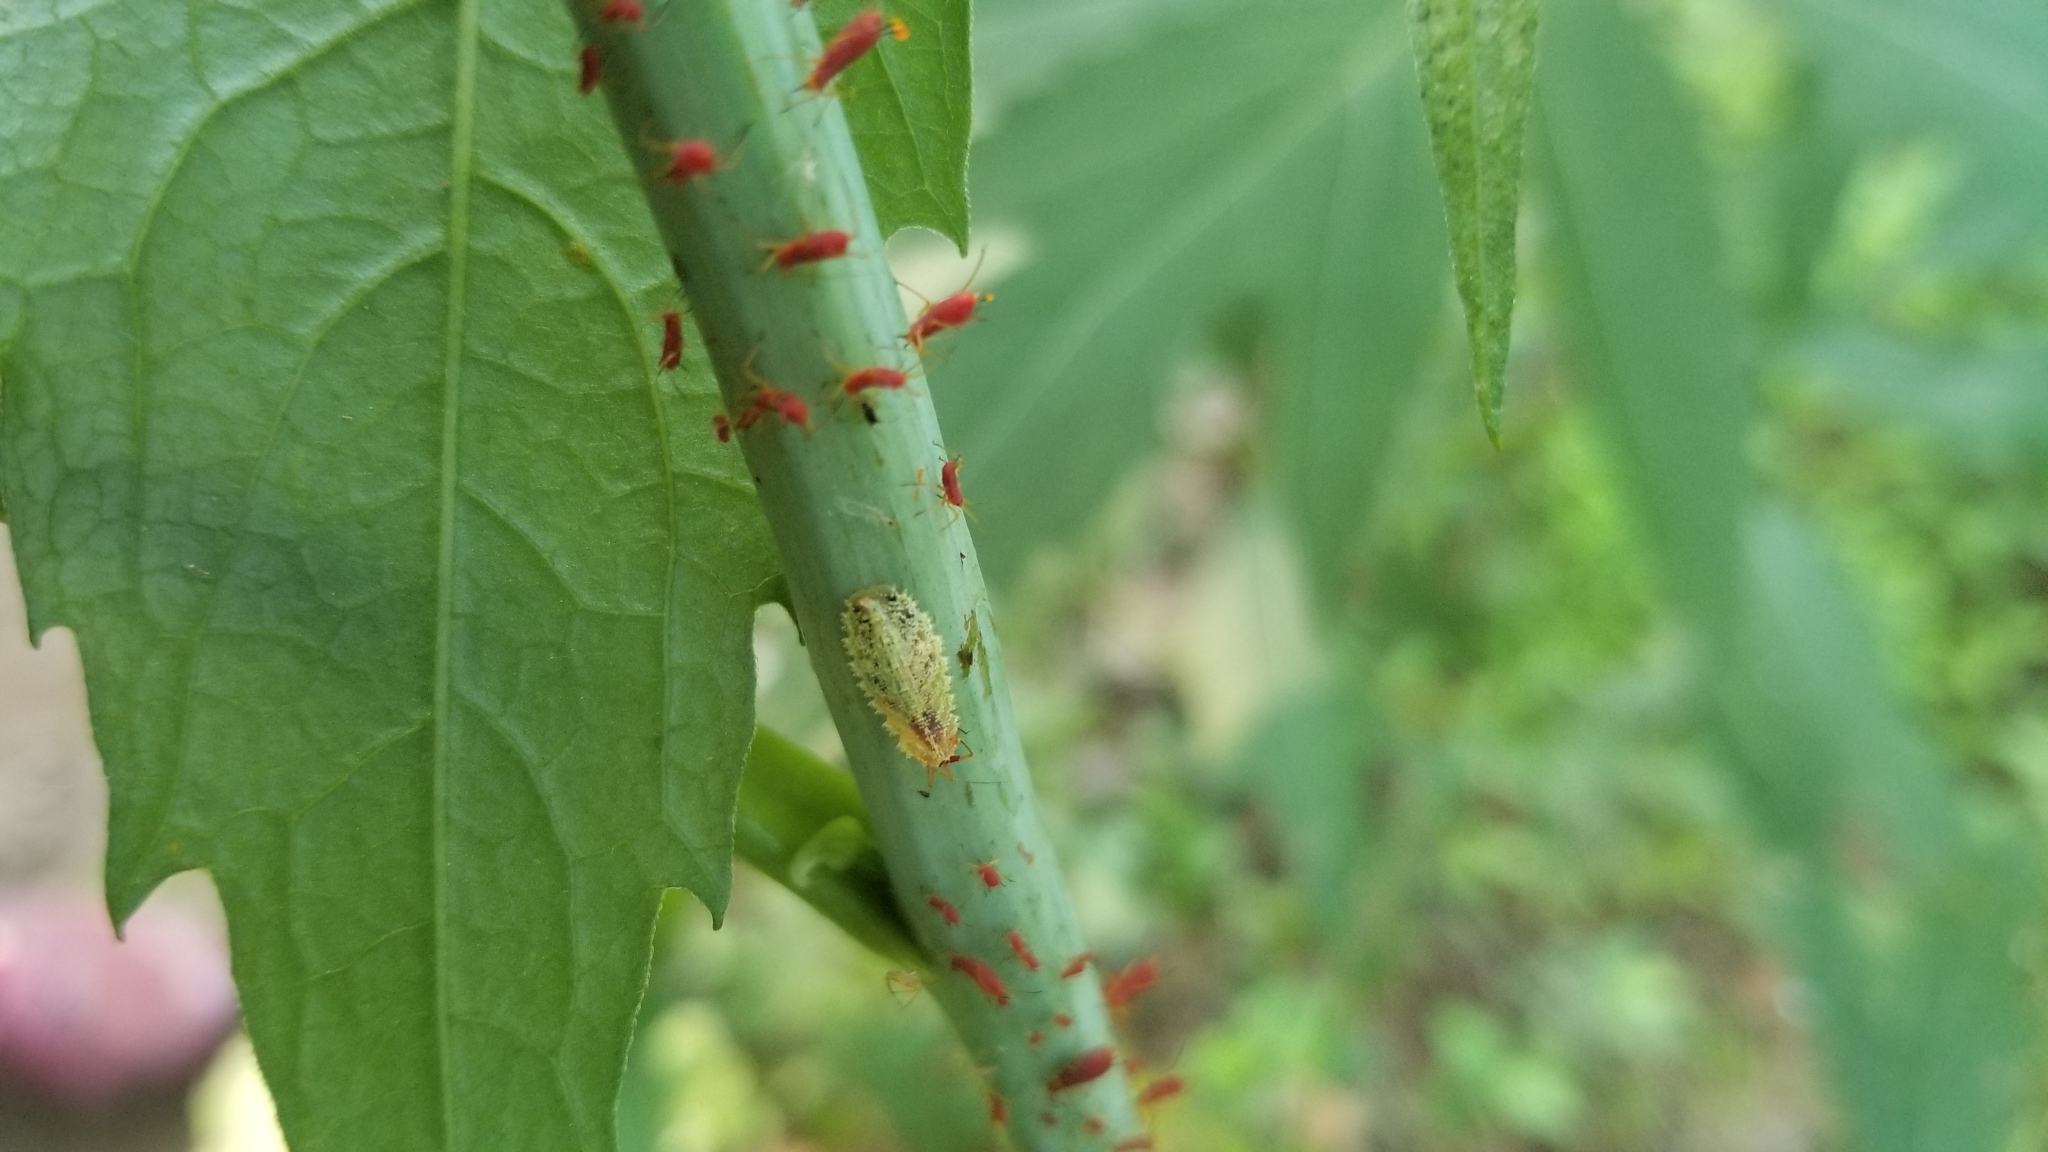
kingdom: Animalia
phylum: Arthropoda
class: Insecta
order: Diptera
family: Syrphidae
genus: Epistrophella
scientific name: Epistrophella emarginata
